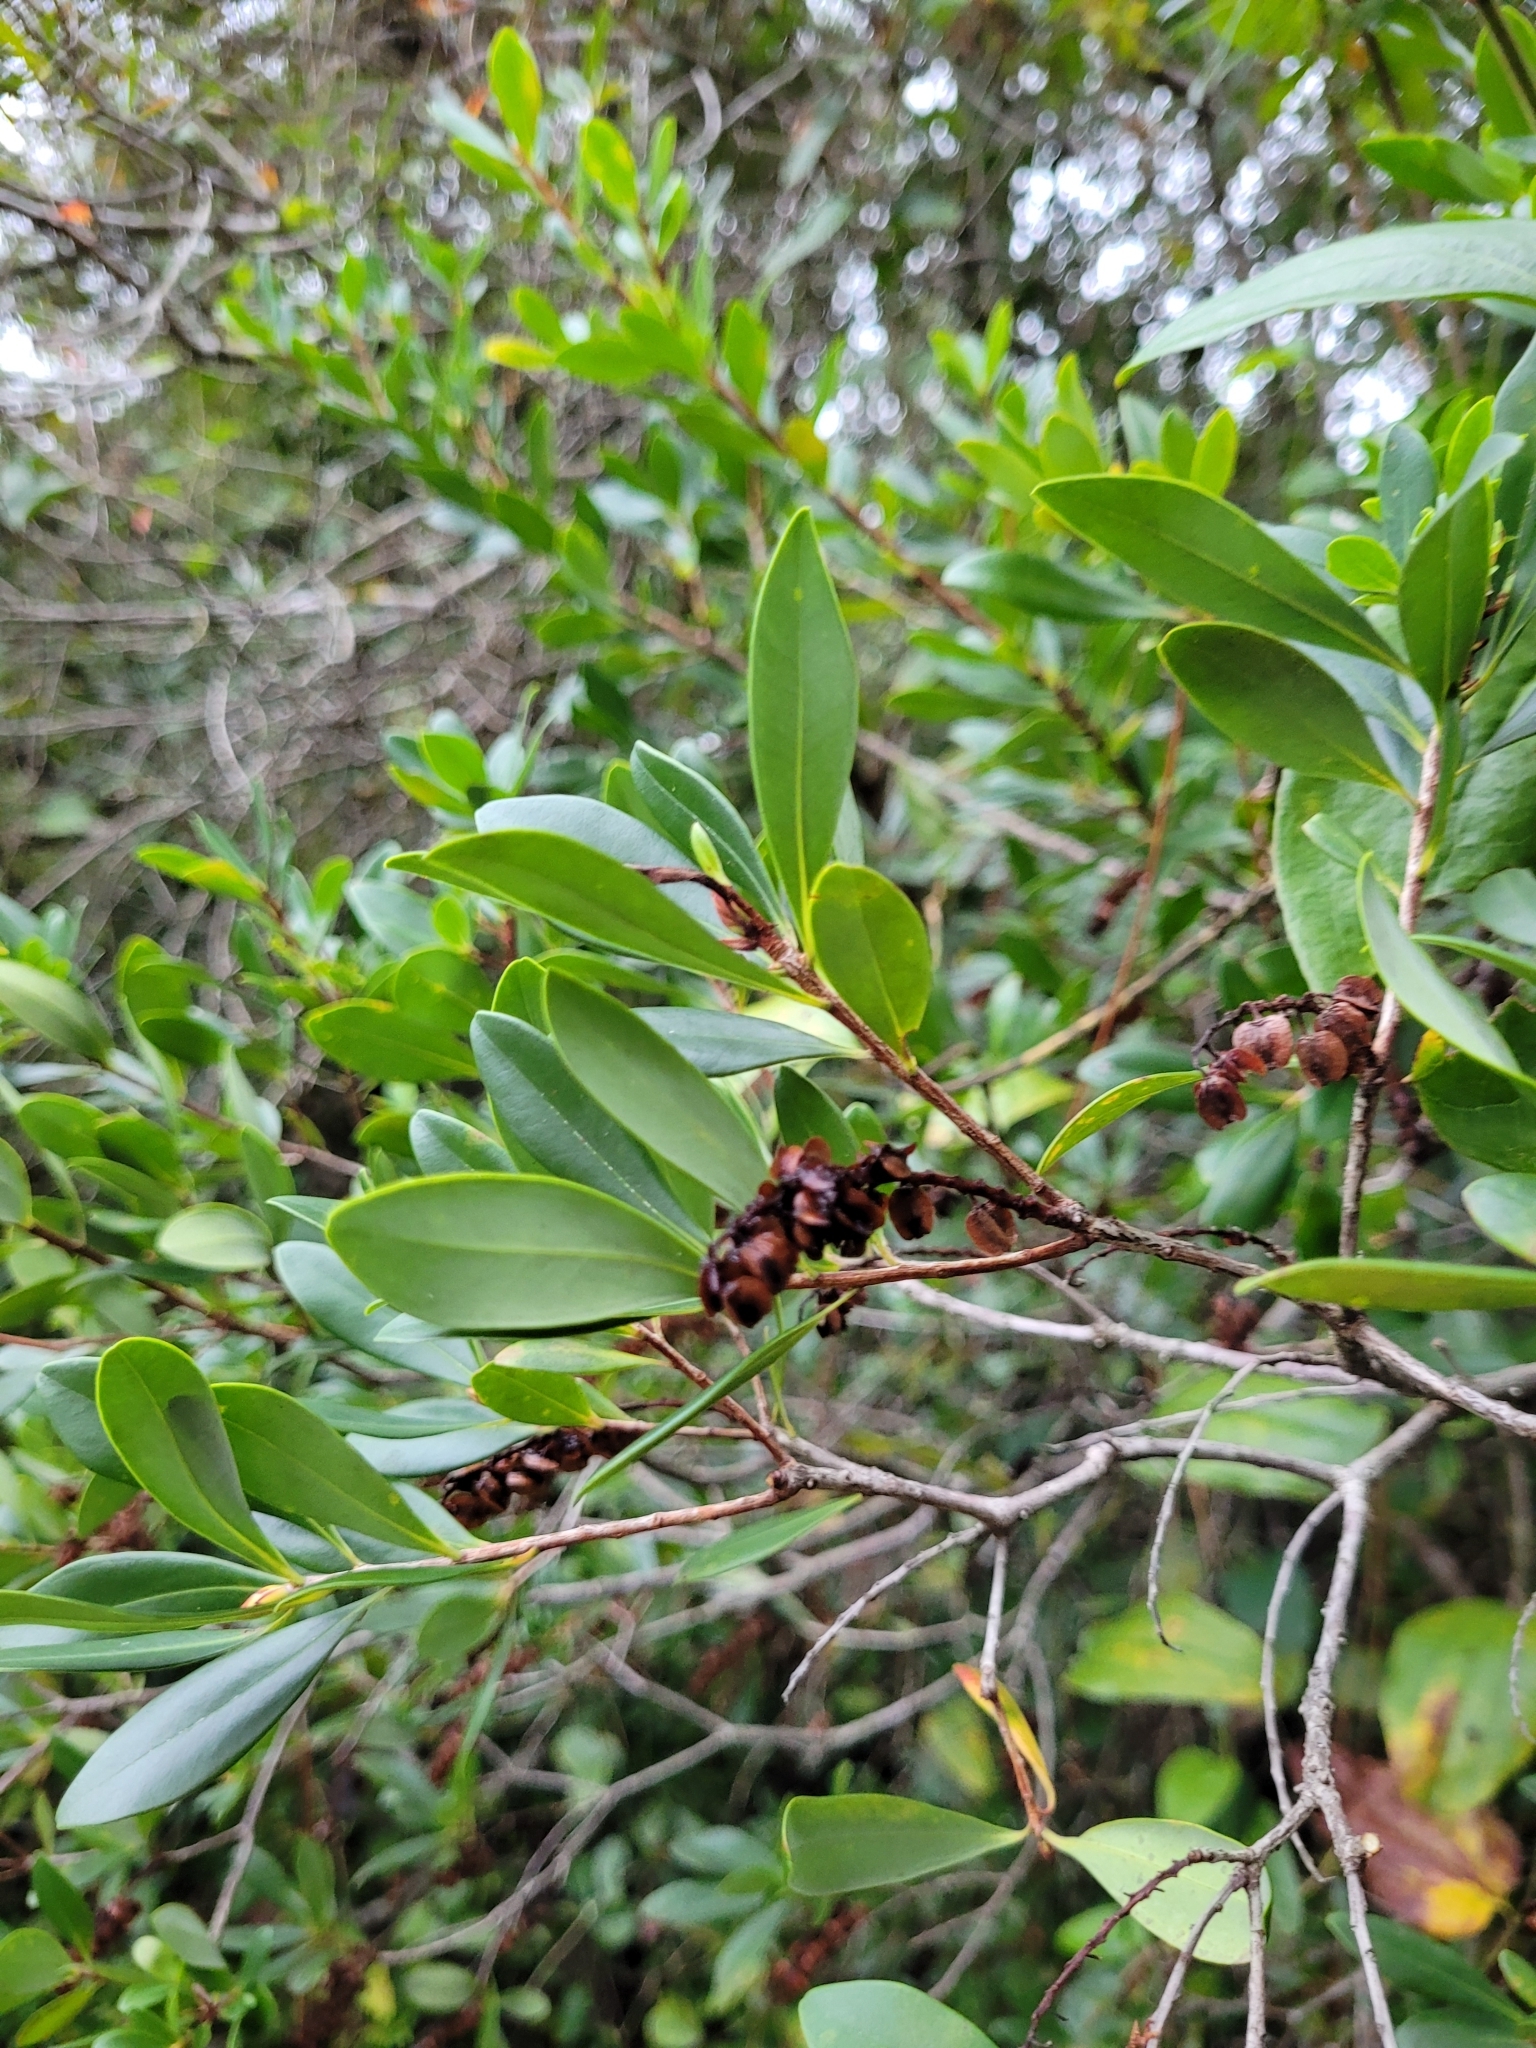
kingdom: Plantae
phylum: Tracheophyta
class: Magnoliopsida
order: Ericales
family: Cyrillaceae
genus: Cliftonia
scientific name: Cliftonia monophylla
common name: Titi
